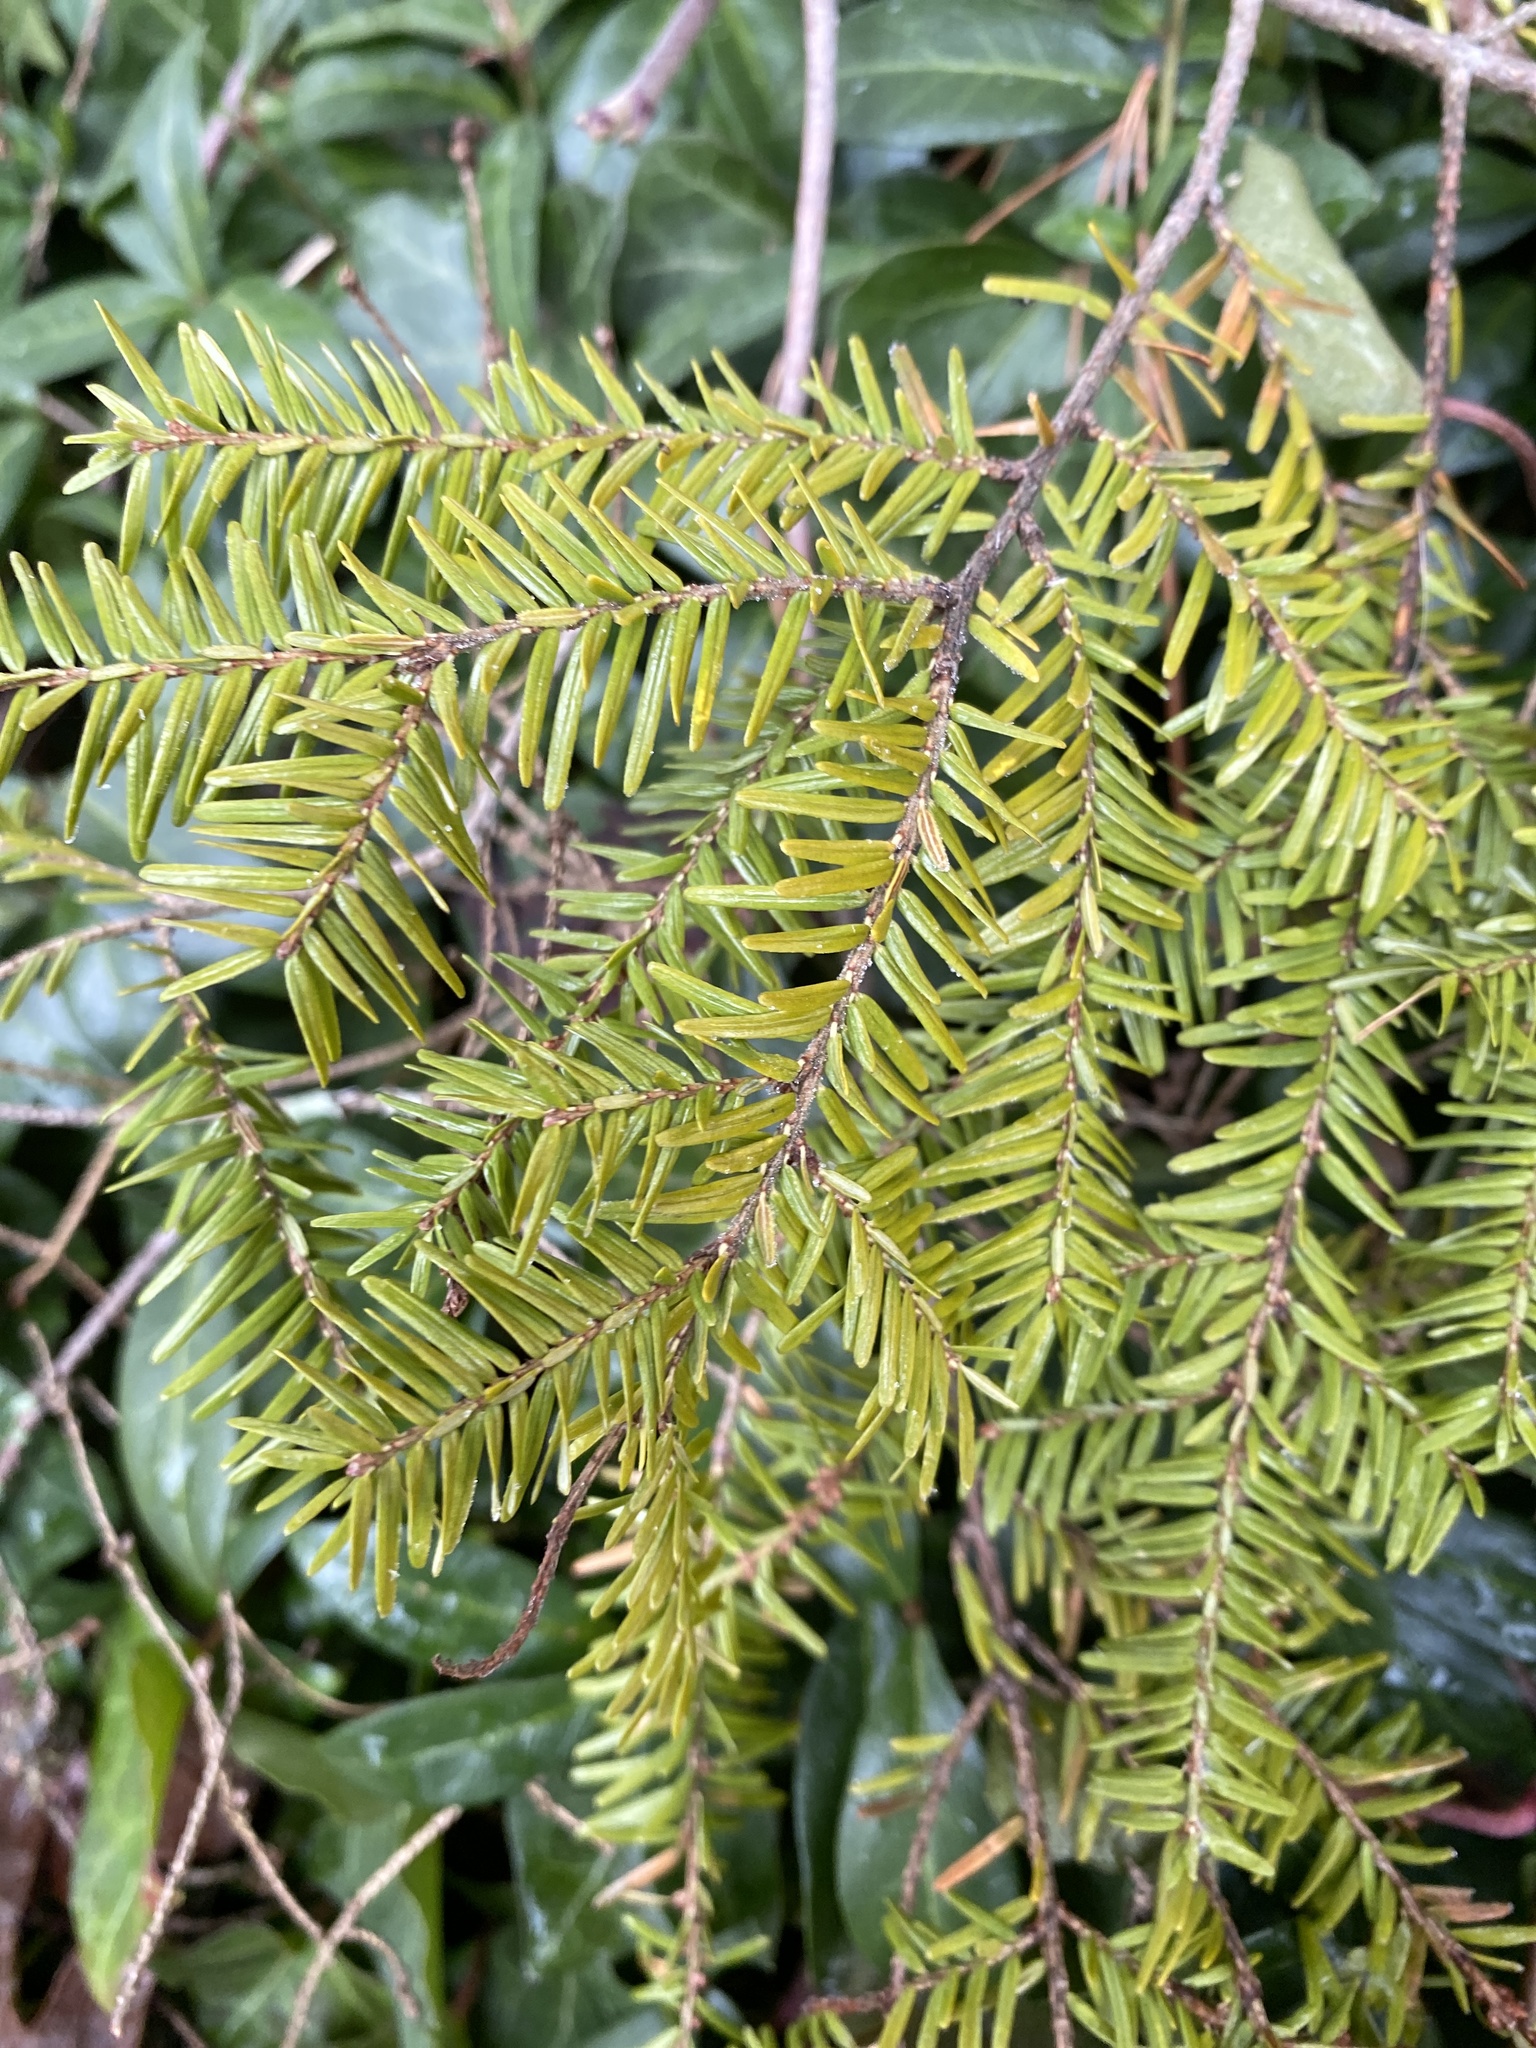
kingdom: Plantae
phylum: Tracheophyta
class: Pinopsida
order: Pinales
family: Pinaceae
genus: Tsuga
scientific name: Tsuga canadensis
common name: Eastern hemlock
